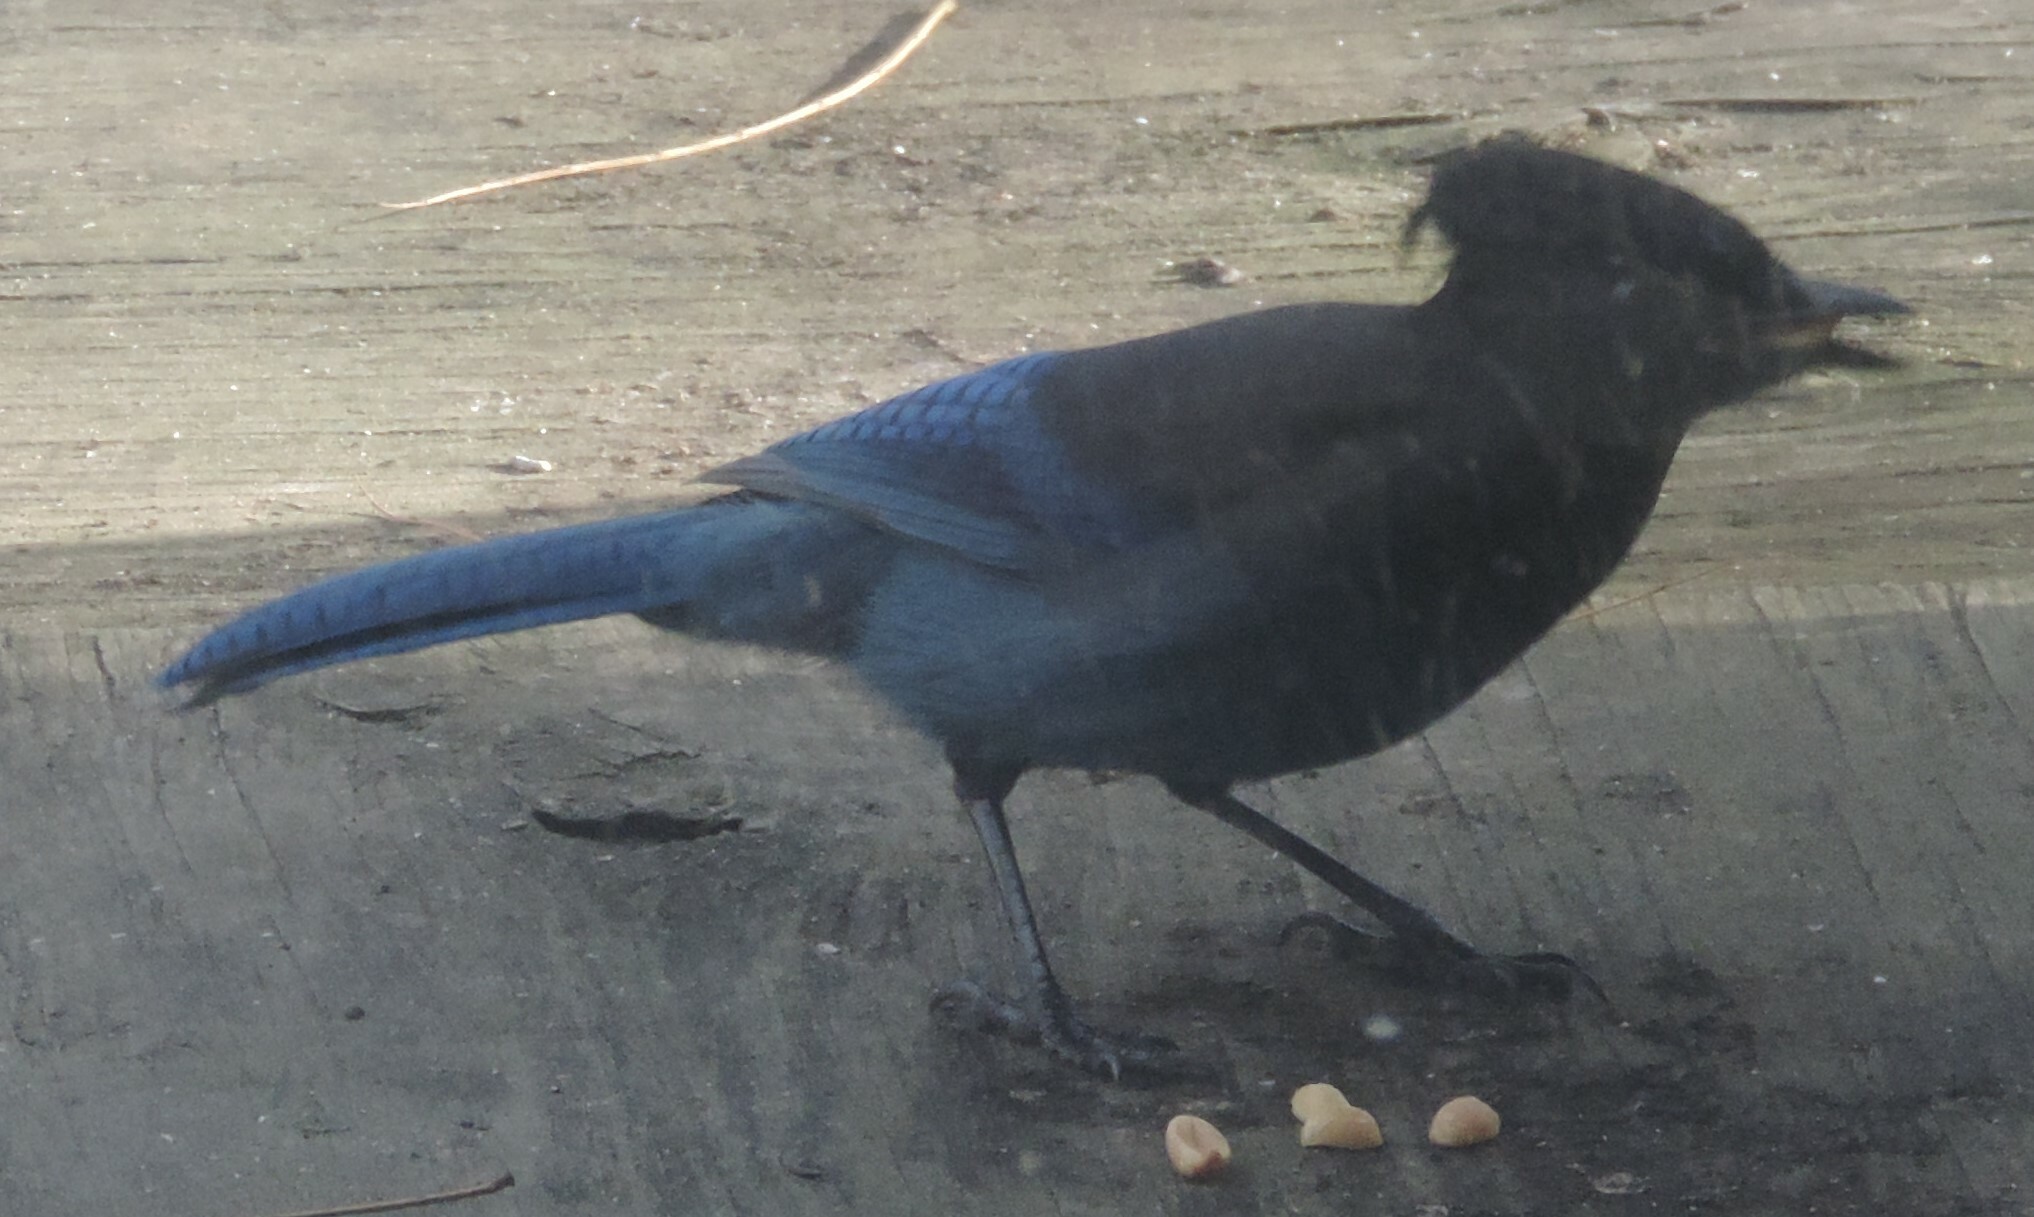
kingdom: Animalia
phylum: Chordata
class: Aves
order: Passeriformes
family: Corvidae
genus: Cyanocitta
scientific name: Cyanocitta stelleri
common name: Steller's jay
